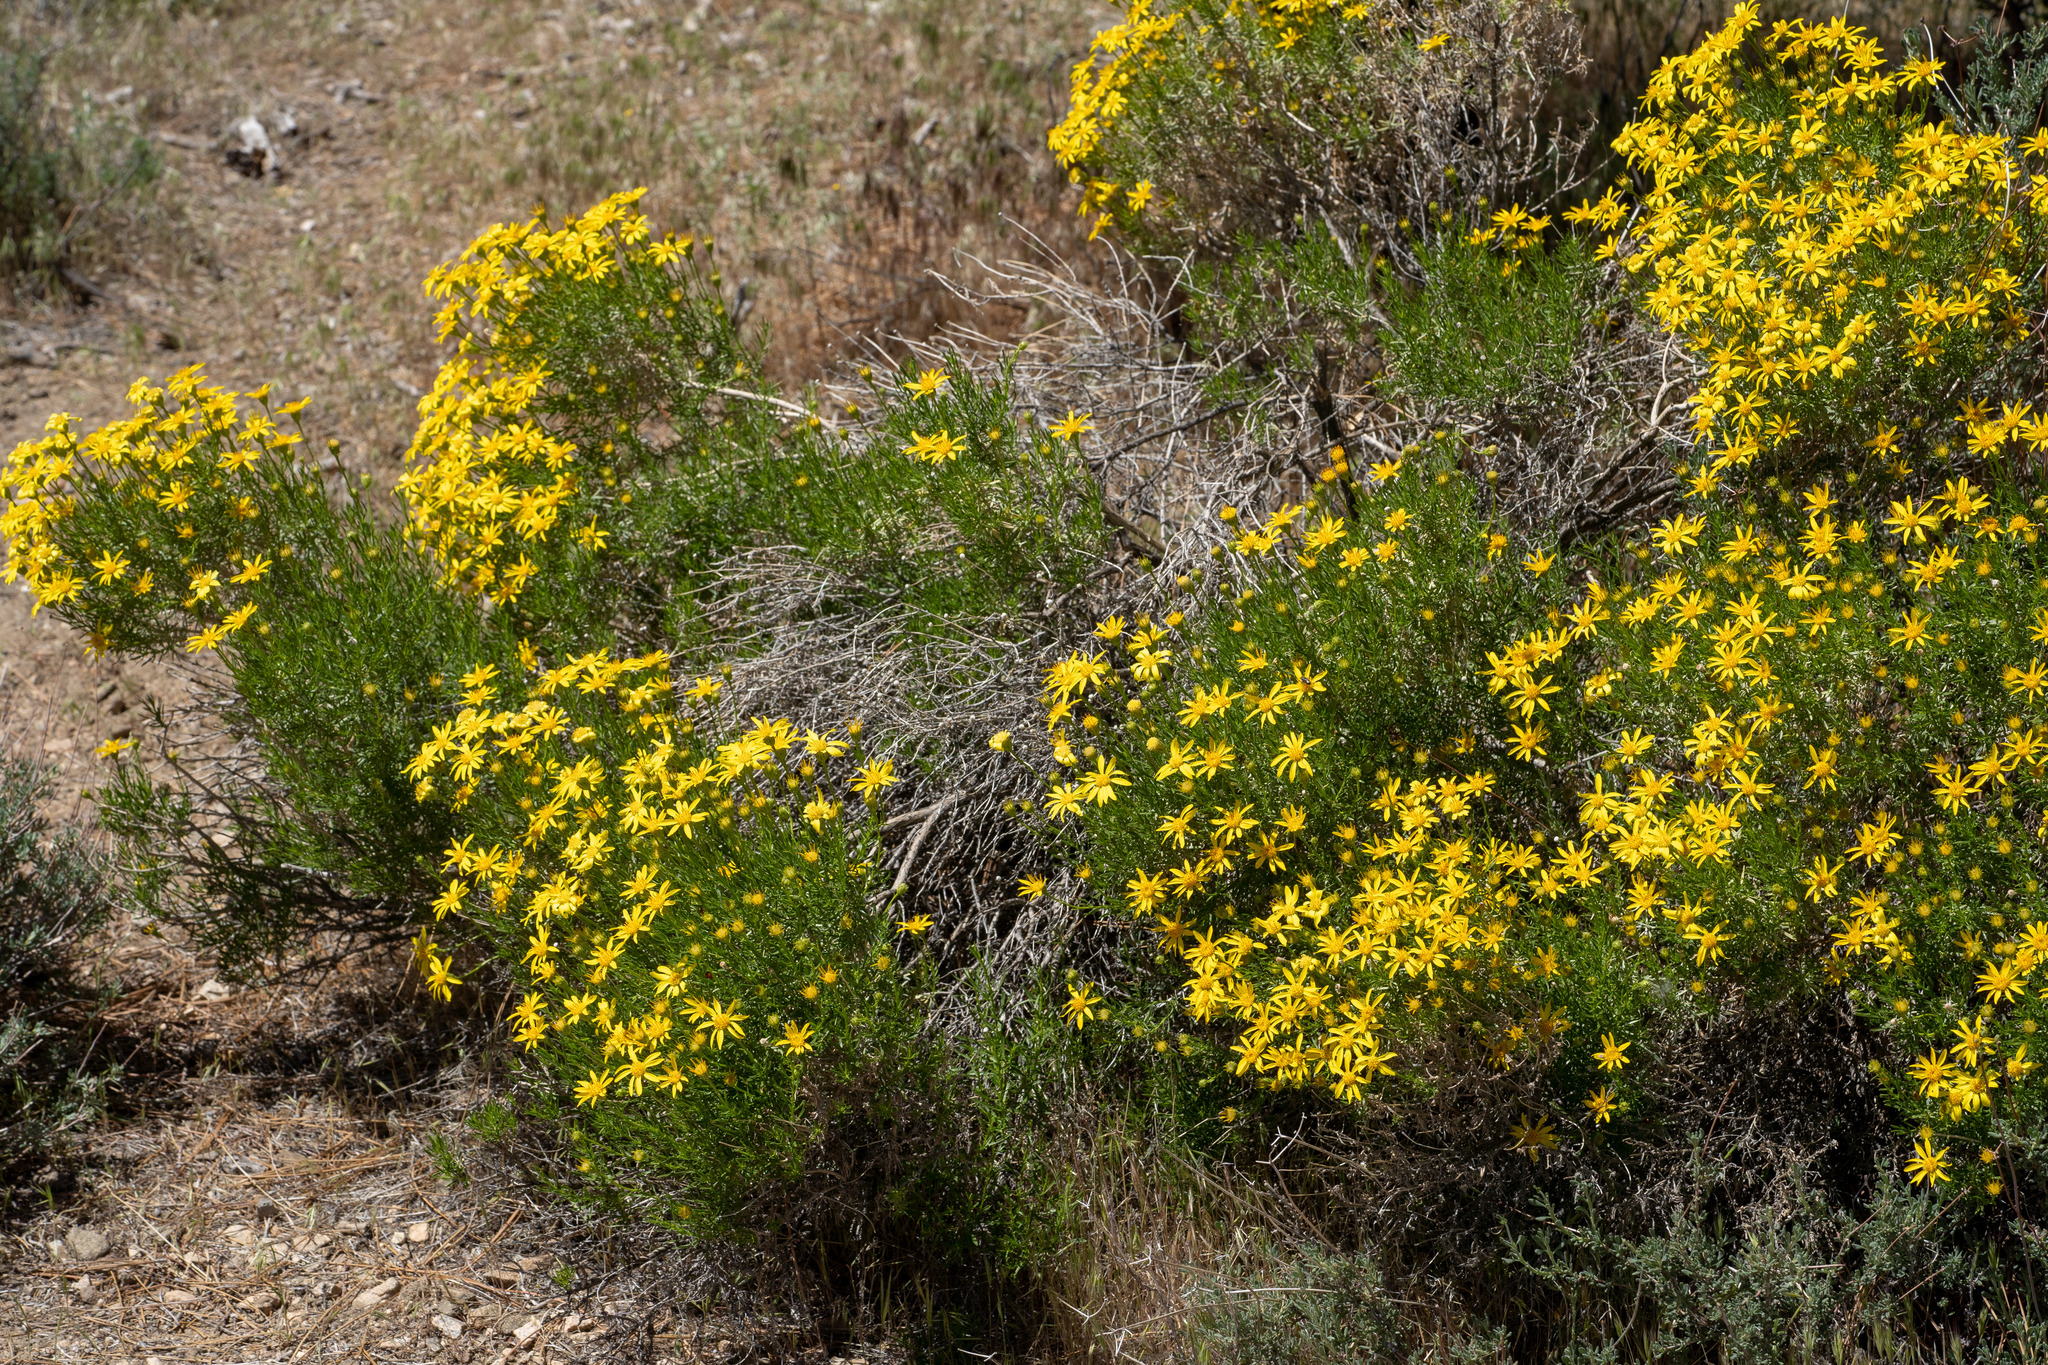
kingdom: Plantae
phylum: Tracheophyta
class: Magnoliopsida
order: Asterales
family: Asteraceae
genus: Ericameria
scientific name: Ericameria linearifolia
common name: Interior goldenbush
